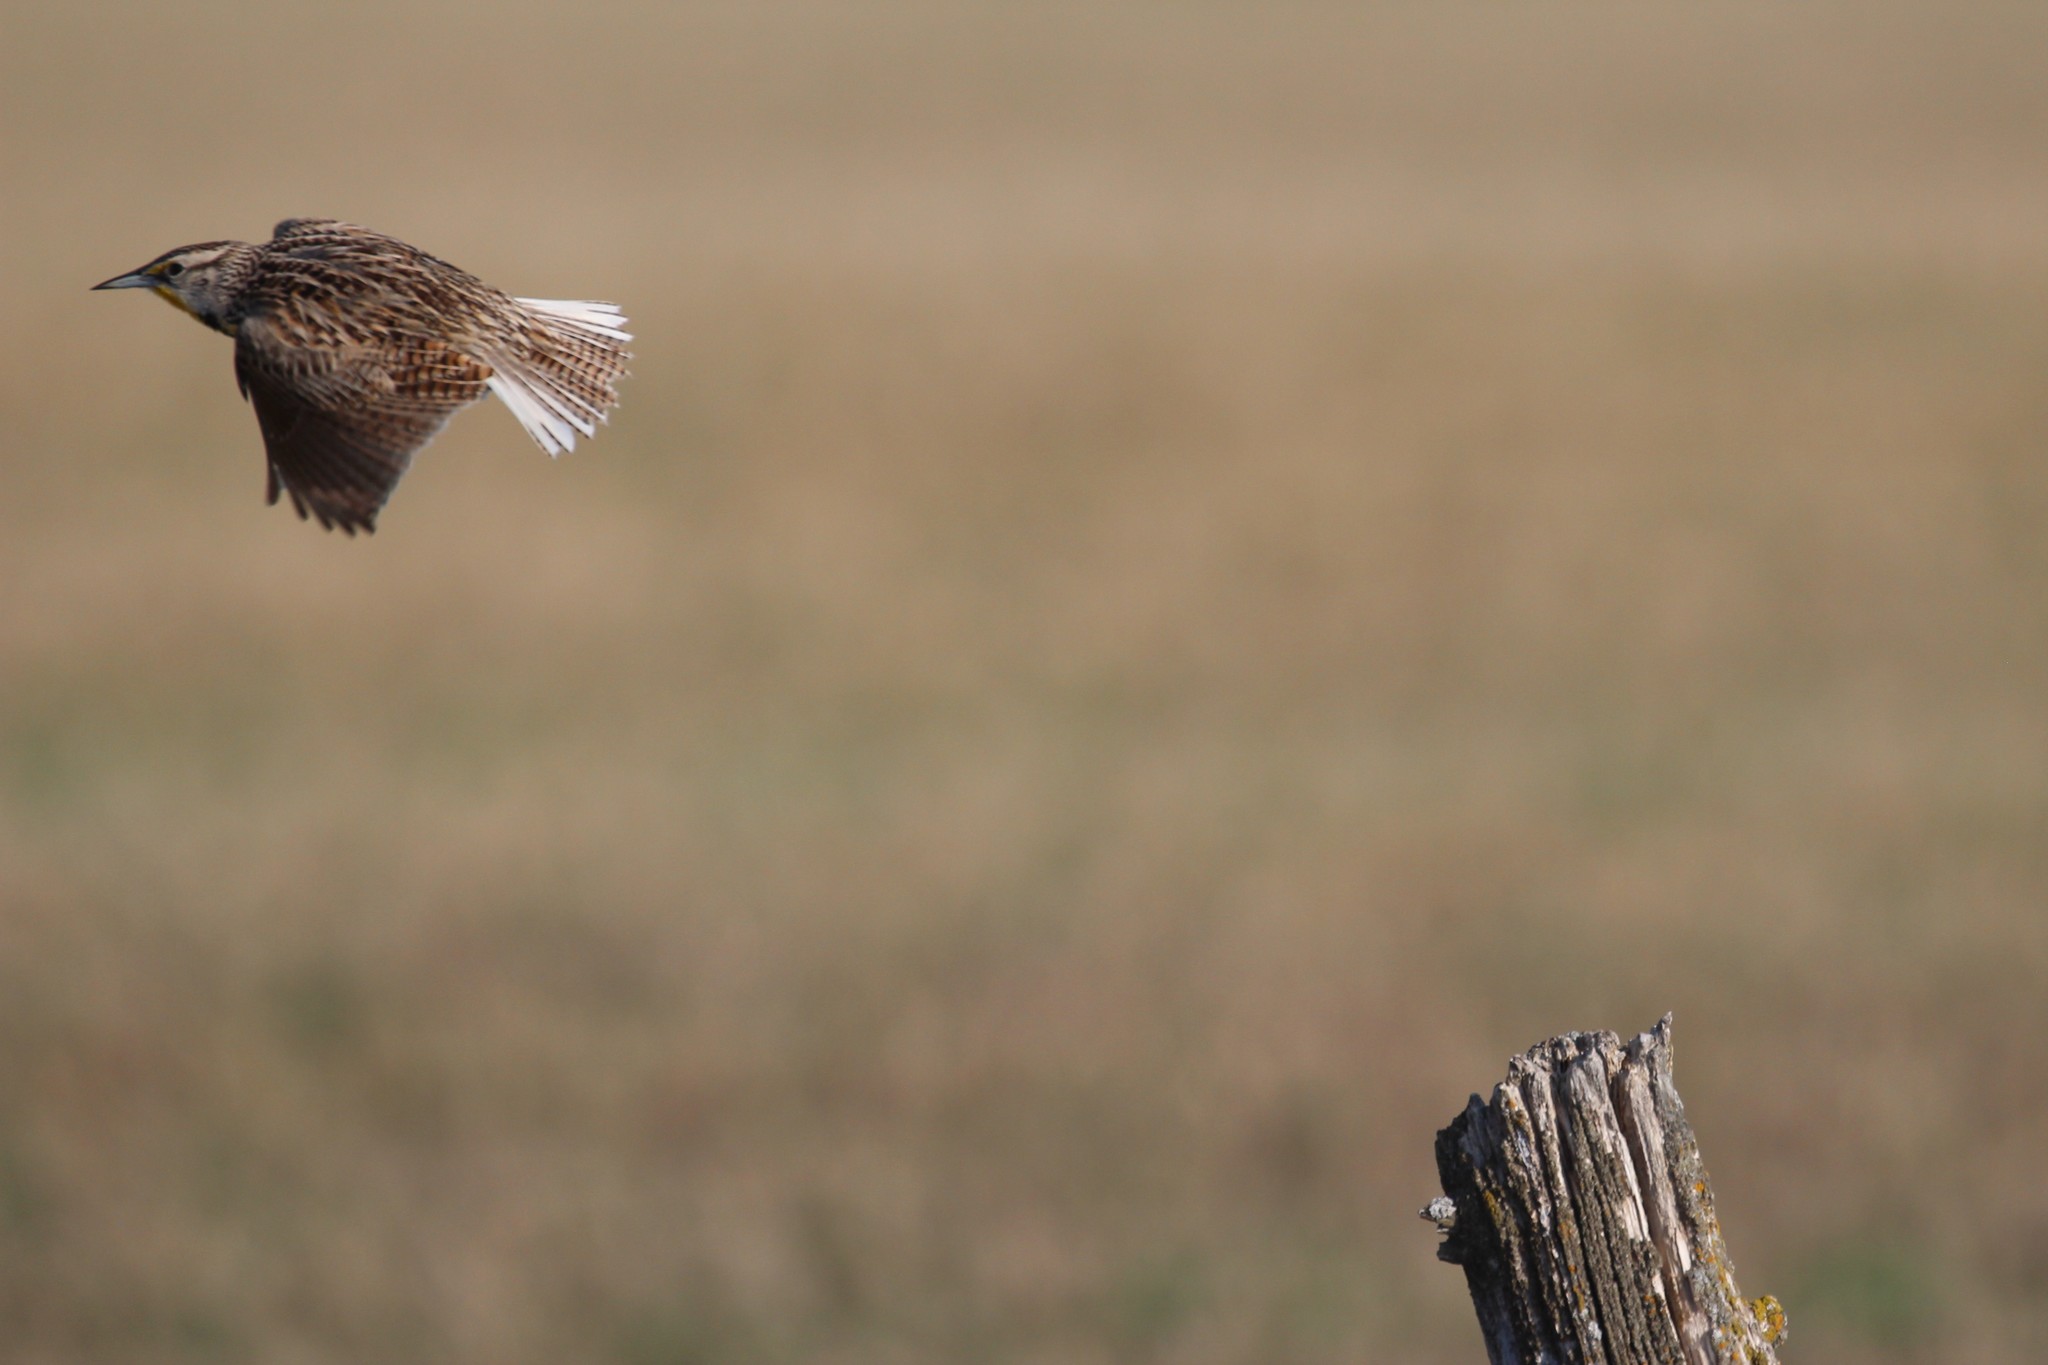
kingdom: Animalia
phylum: Chordata
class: Aves
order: Passeriformes
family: Icteridae
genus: Sturnella
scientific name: Sturnella neglecta
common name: Western meadowlark
